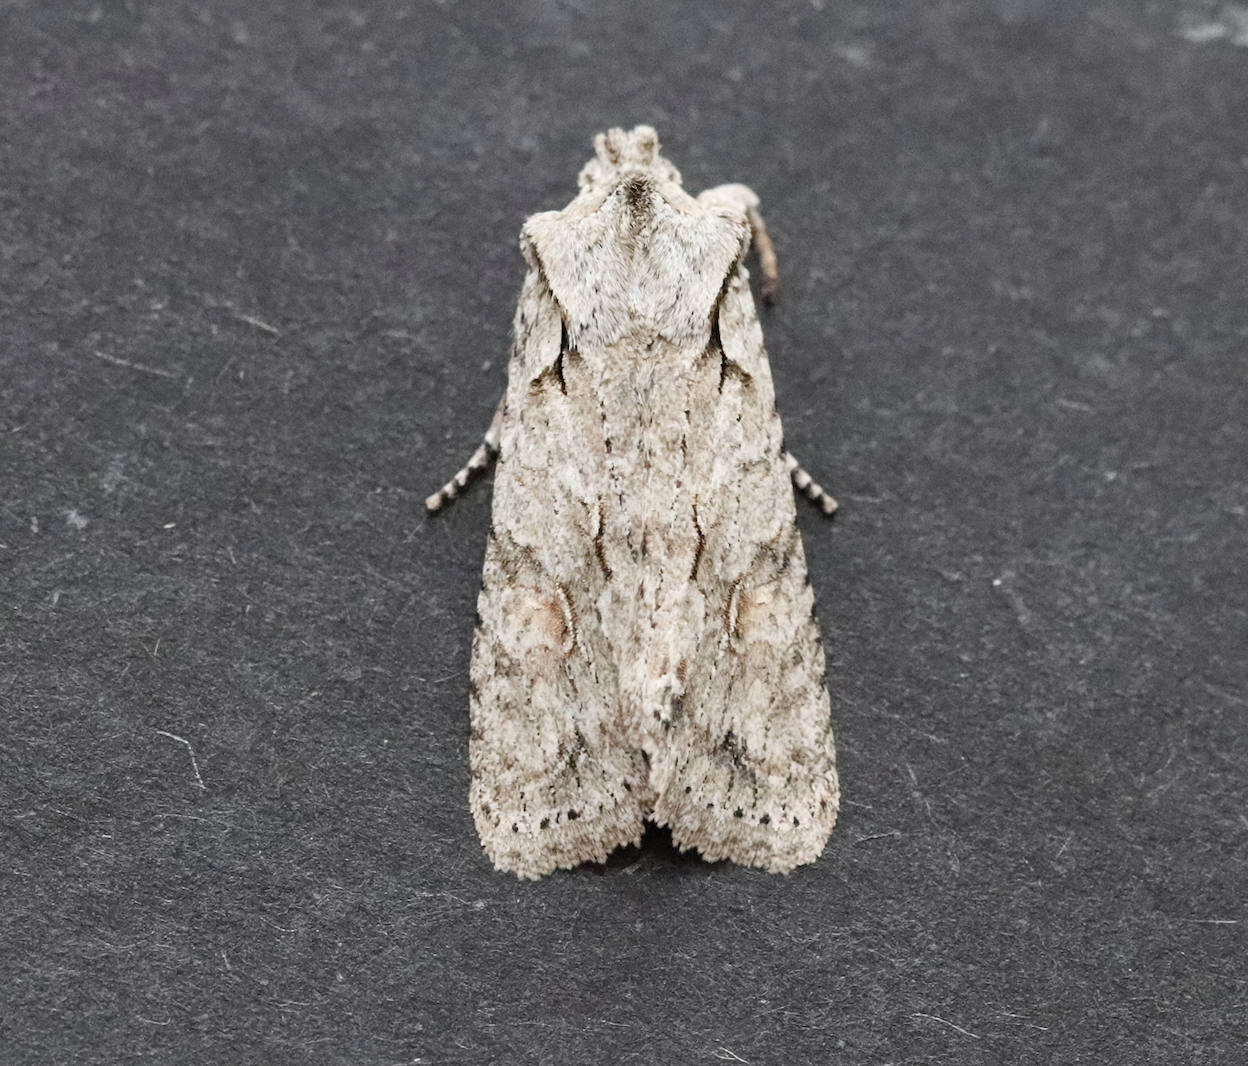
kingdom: Animalia
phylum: Arthropoda
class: Insecta
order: Lepidoptera
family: Noctuidae
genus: Lithophane
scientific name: Lithophane ornitopus
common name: Grey shoulder-knot
